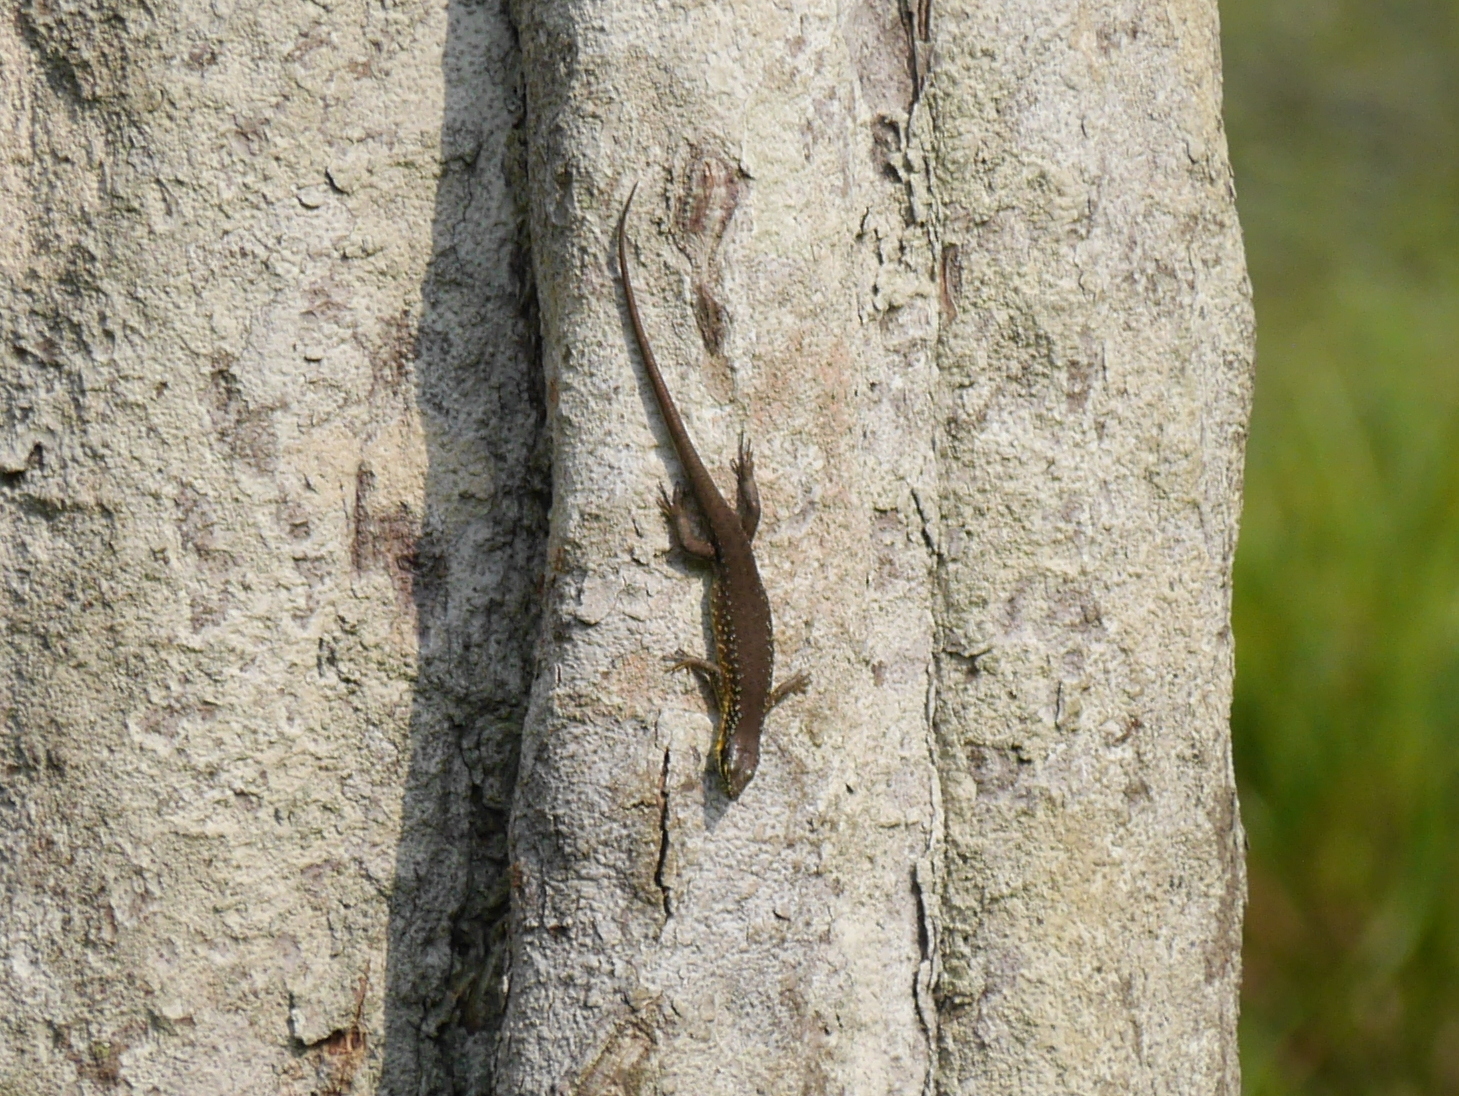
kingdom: Animalia
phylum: Chordata
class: Squamata
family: Scincidae
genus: Trachylepis
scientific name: Trachylepis maculilabris
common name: Speckle-lipped mabuya
